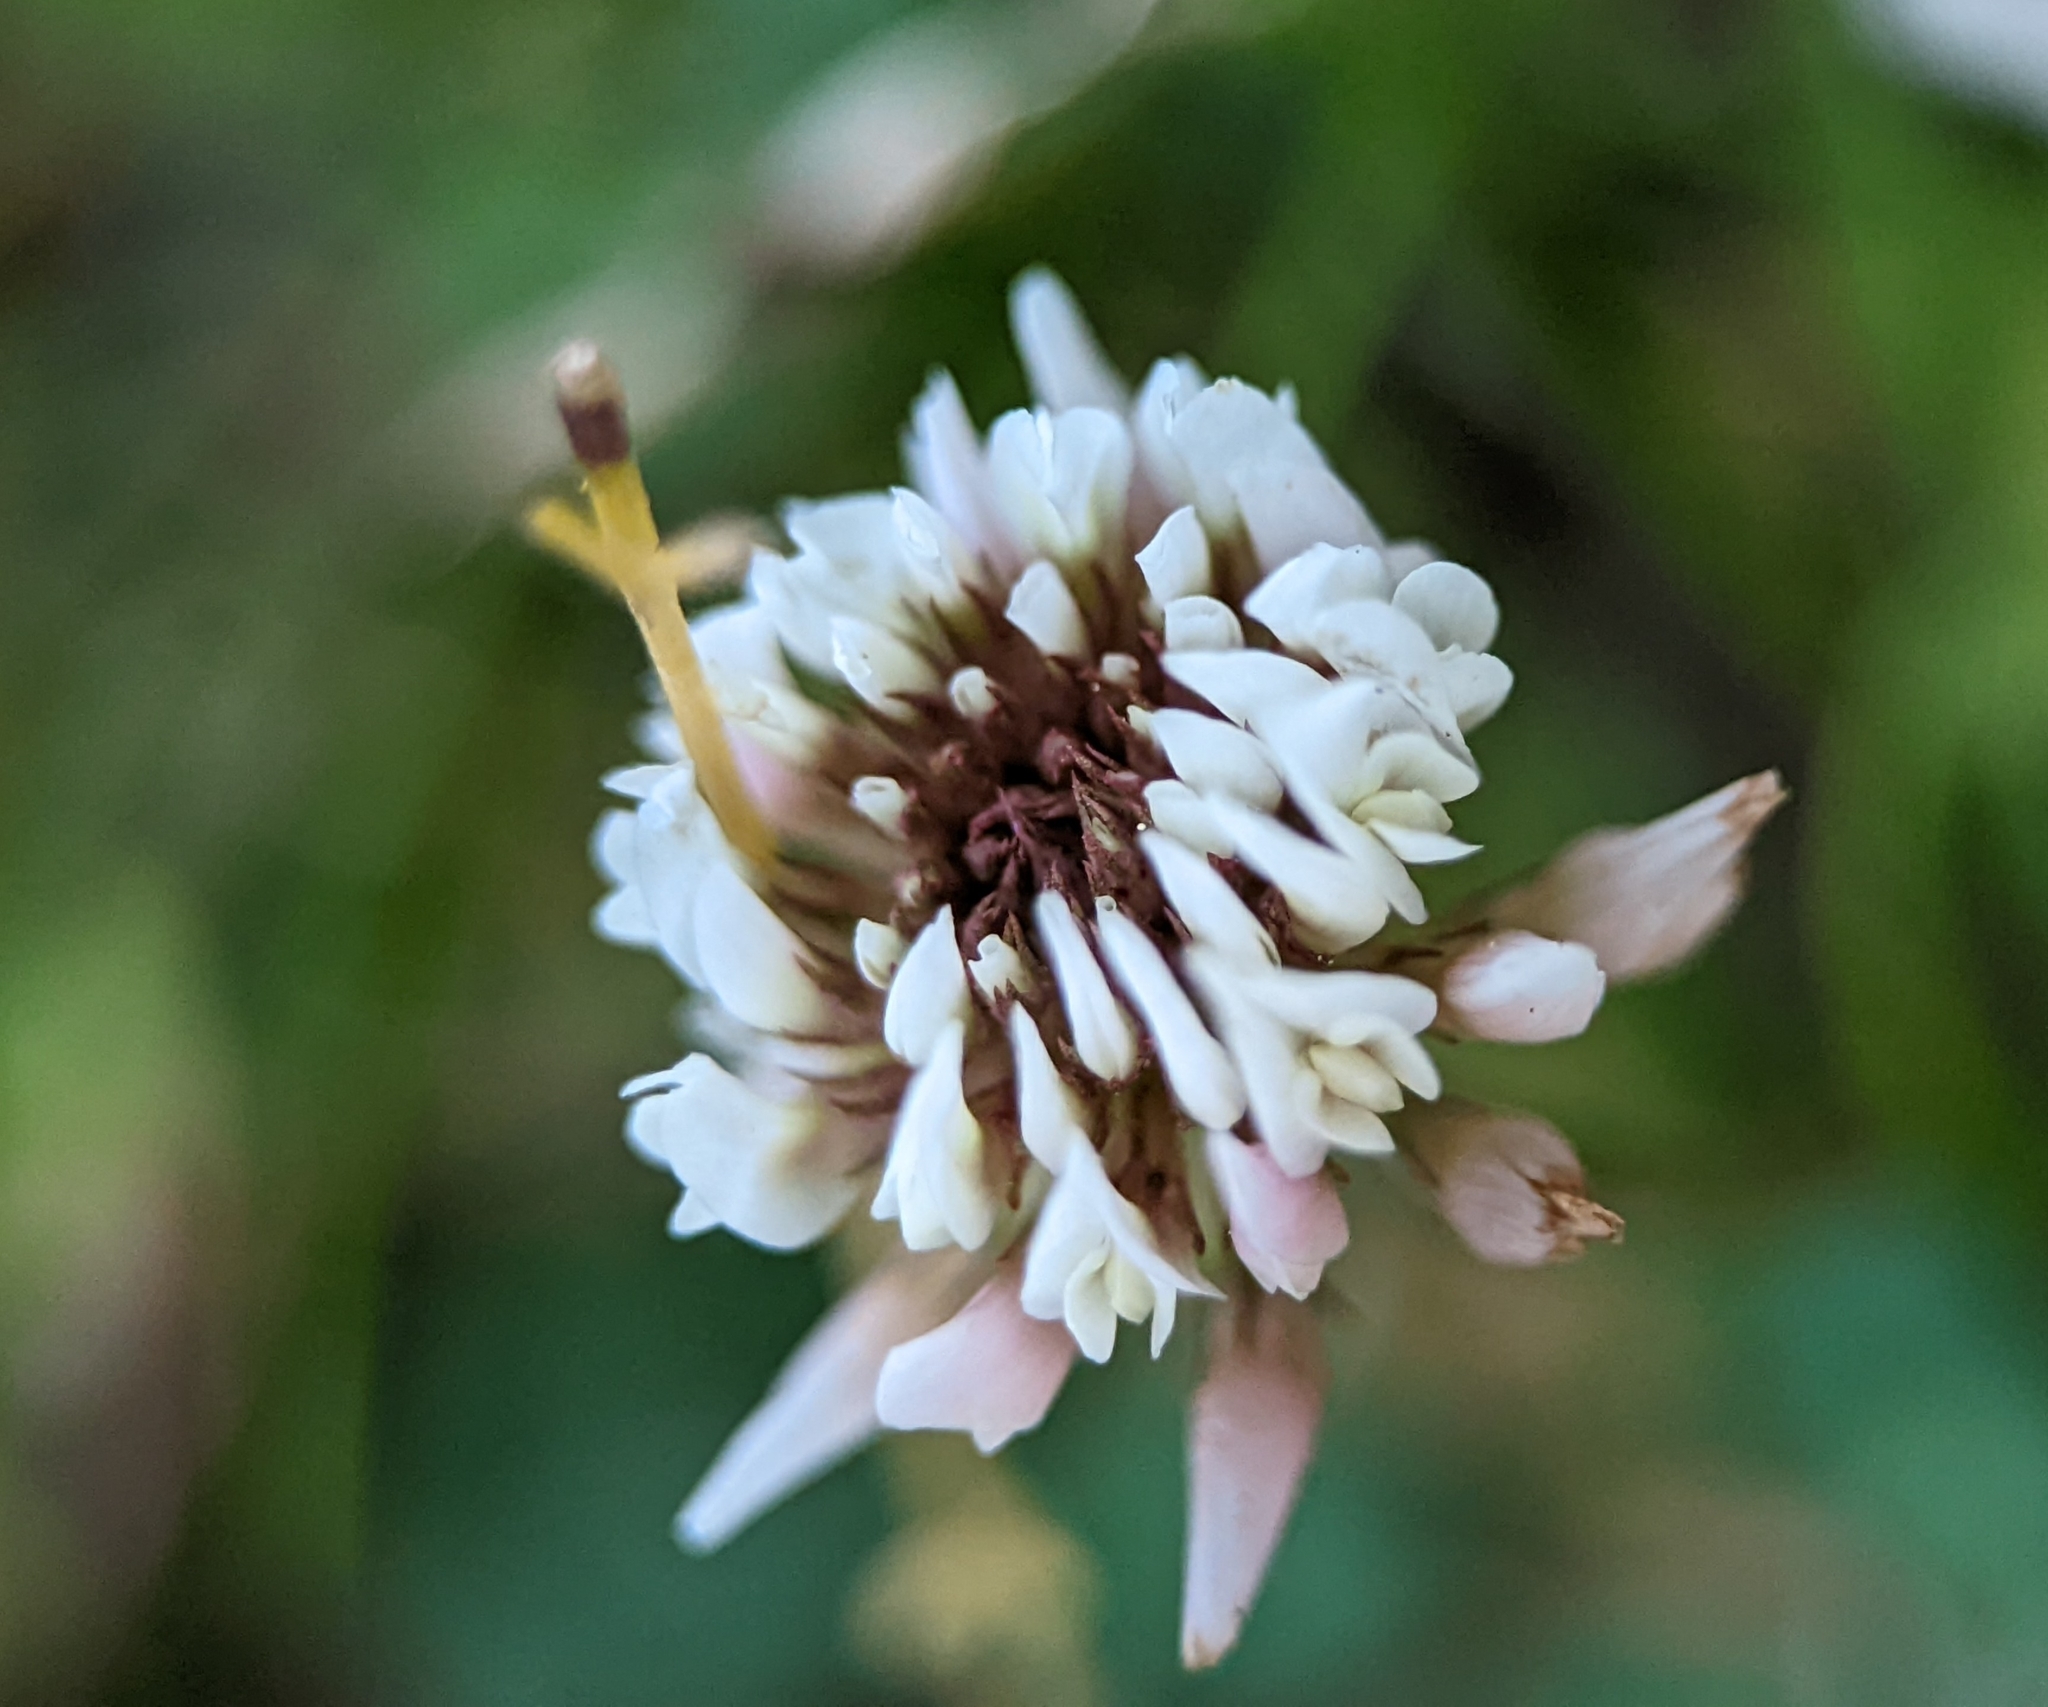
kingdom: Plantae
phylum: Tracheophyta
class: Magnoliopsida
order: Fabales
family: Fabaceae
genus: Trifolium
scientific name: Trifolium repens
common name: White clover
